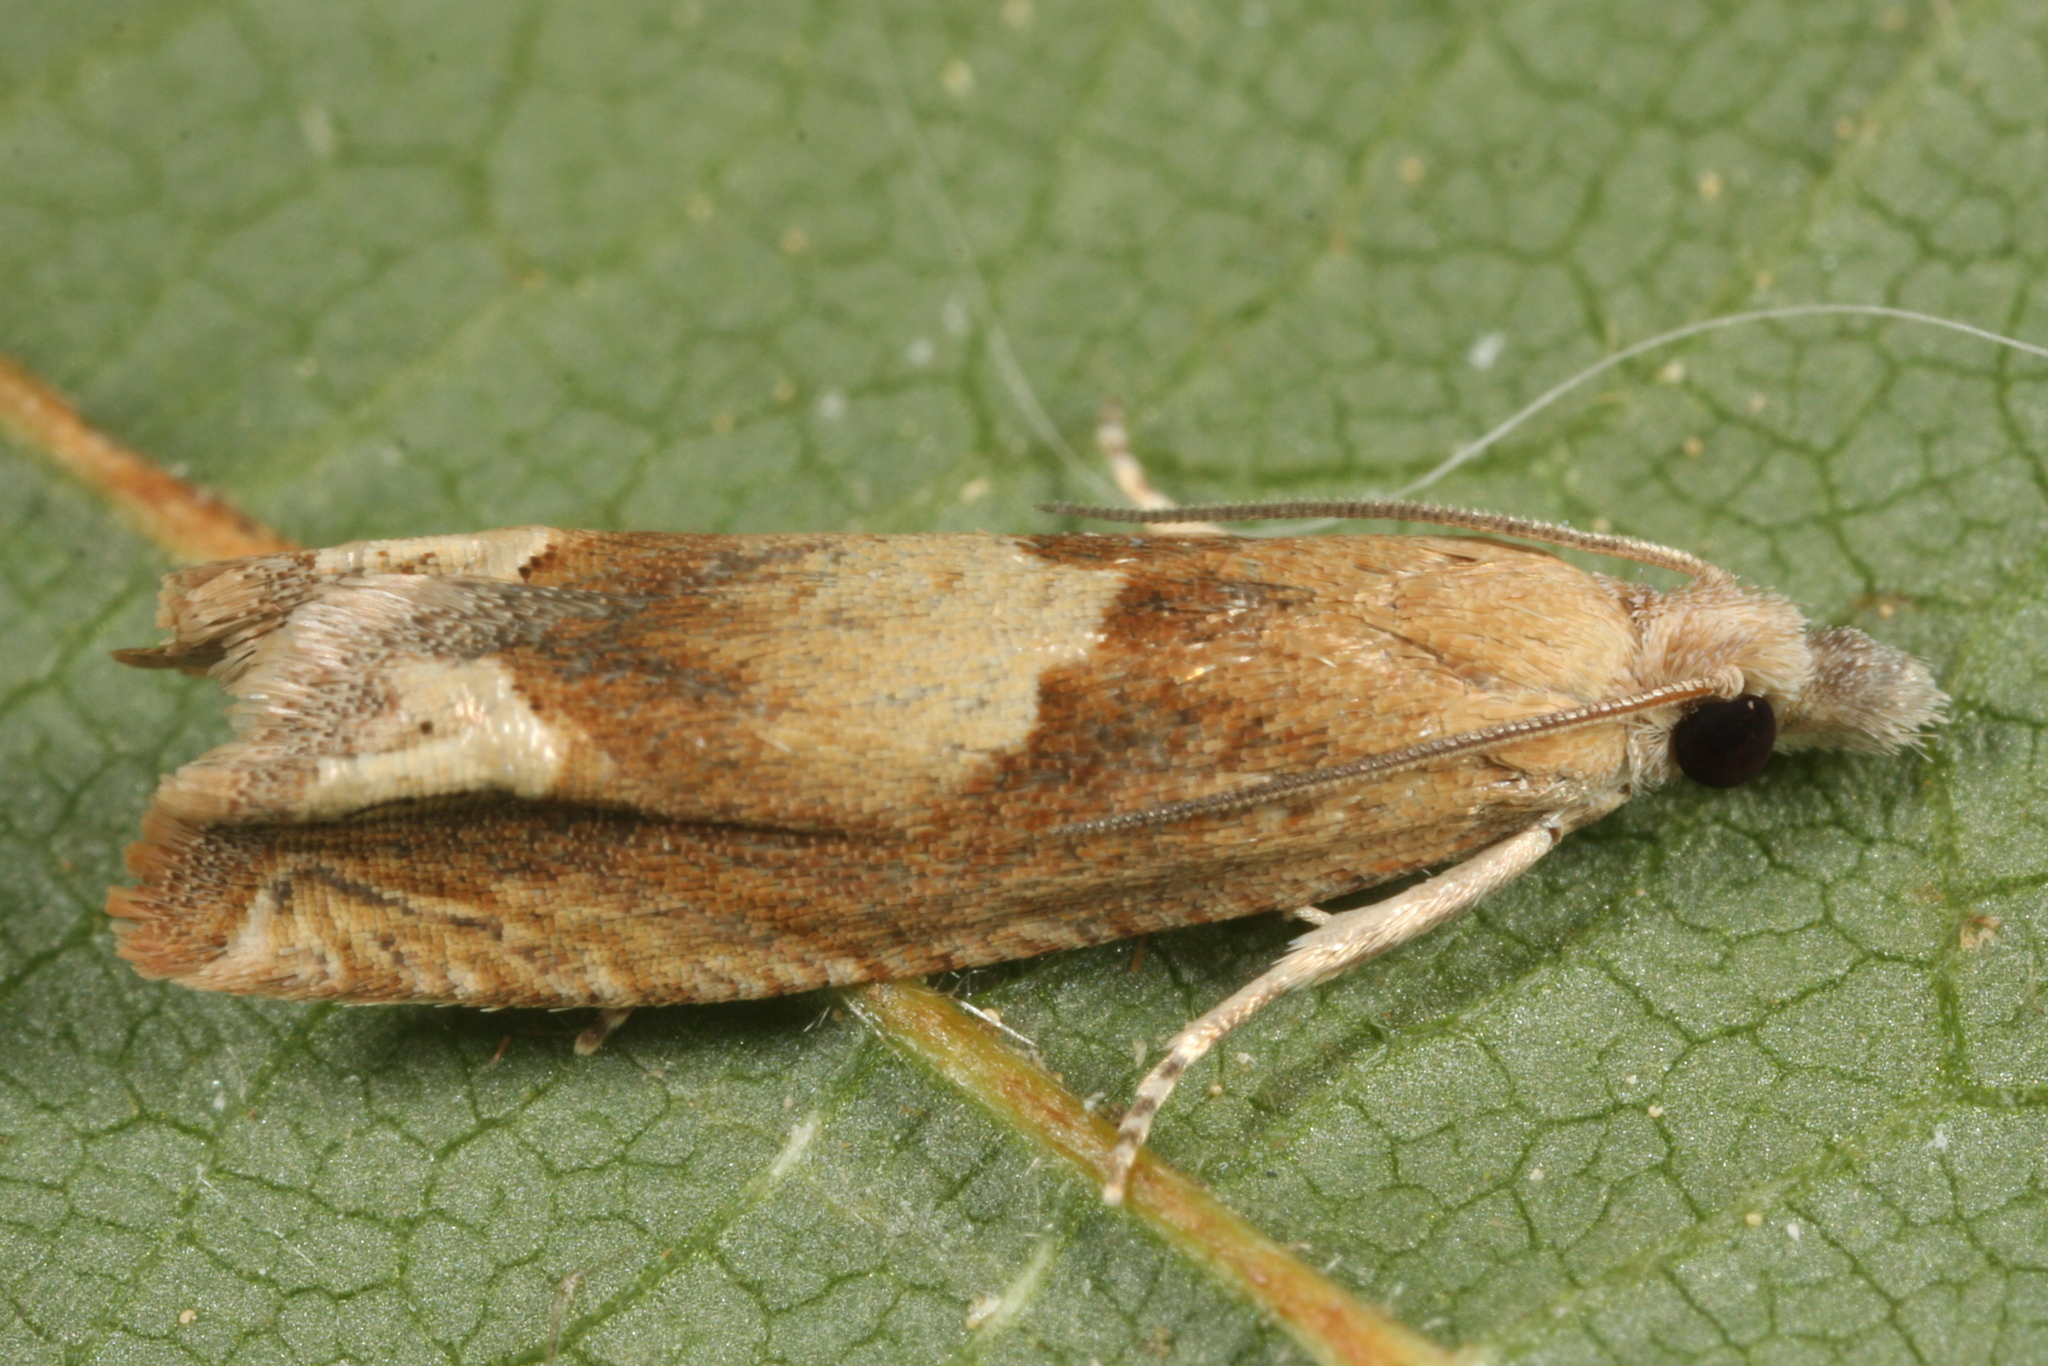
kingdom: Animalia
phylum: Arthropoda
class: Insecta
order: Lepidoptera
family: Tortricidae
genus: Eucosma
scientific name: Eucosma conterminana
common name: Pale lettuce bell
